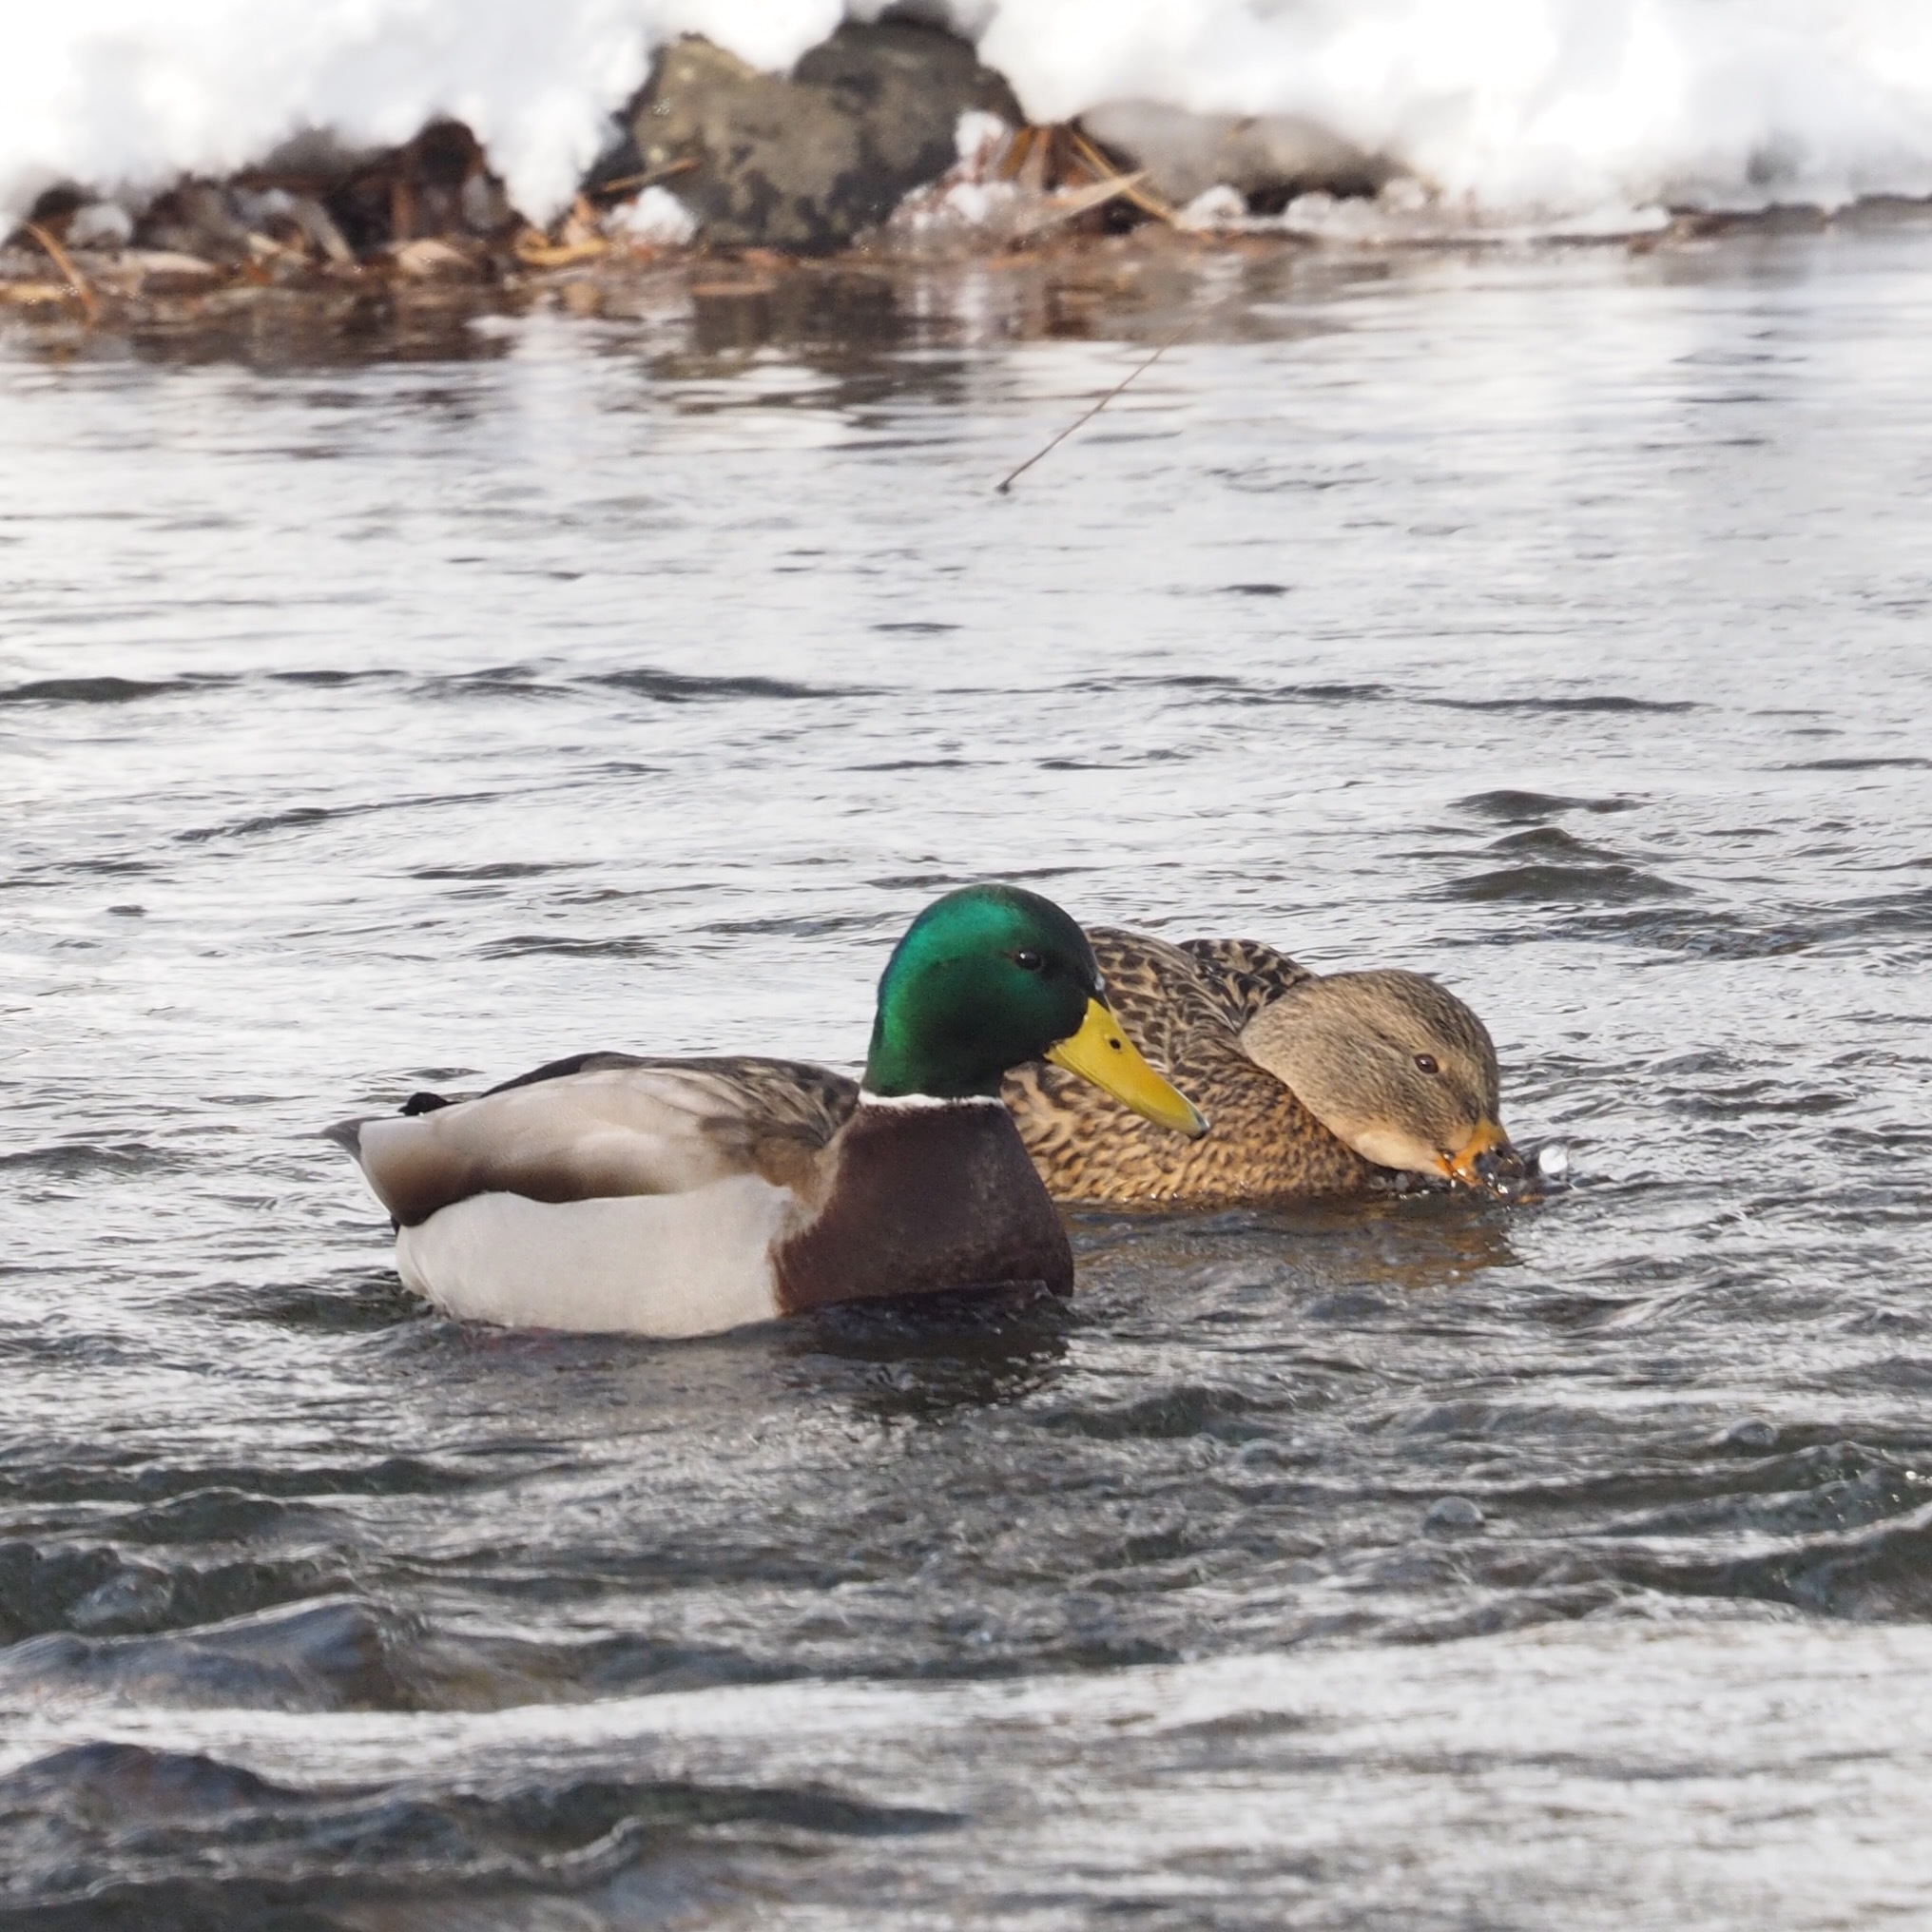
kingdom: Animalia
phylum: Chordata
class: Aves
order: Anseriformes
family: Anatidae
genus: Anas
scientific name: Anas platyrhynchos
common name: Mallard
